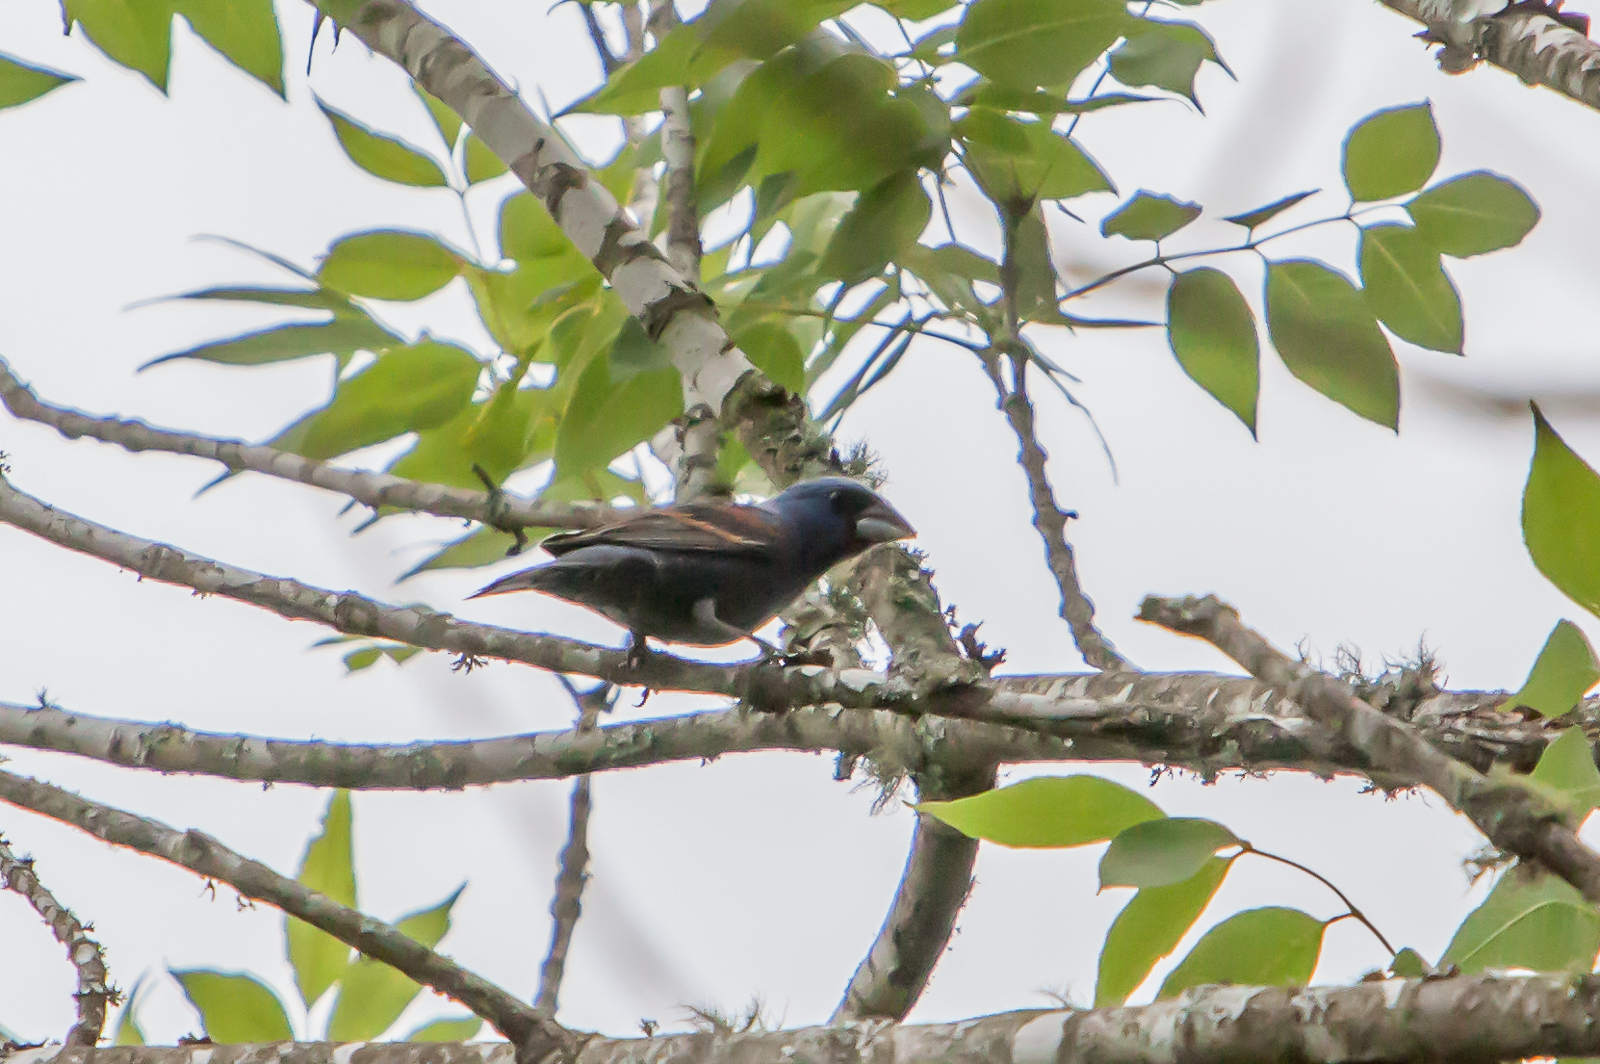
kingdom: Animalia
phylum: Chordata
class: Aves
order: Passeriformes
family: Cardinalidae
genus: Passerina
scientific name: Passerina caerulea
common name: Blue grosbeak
